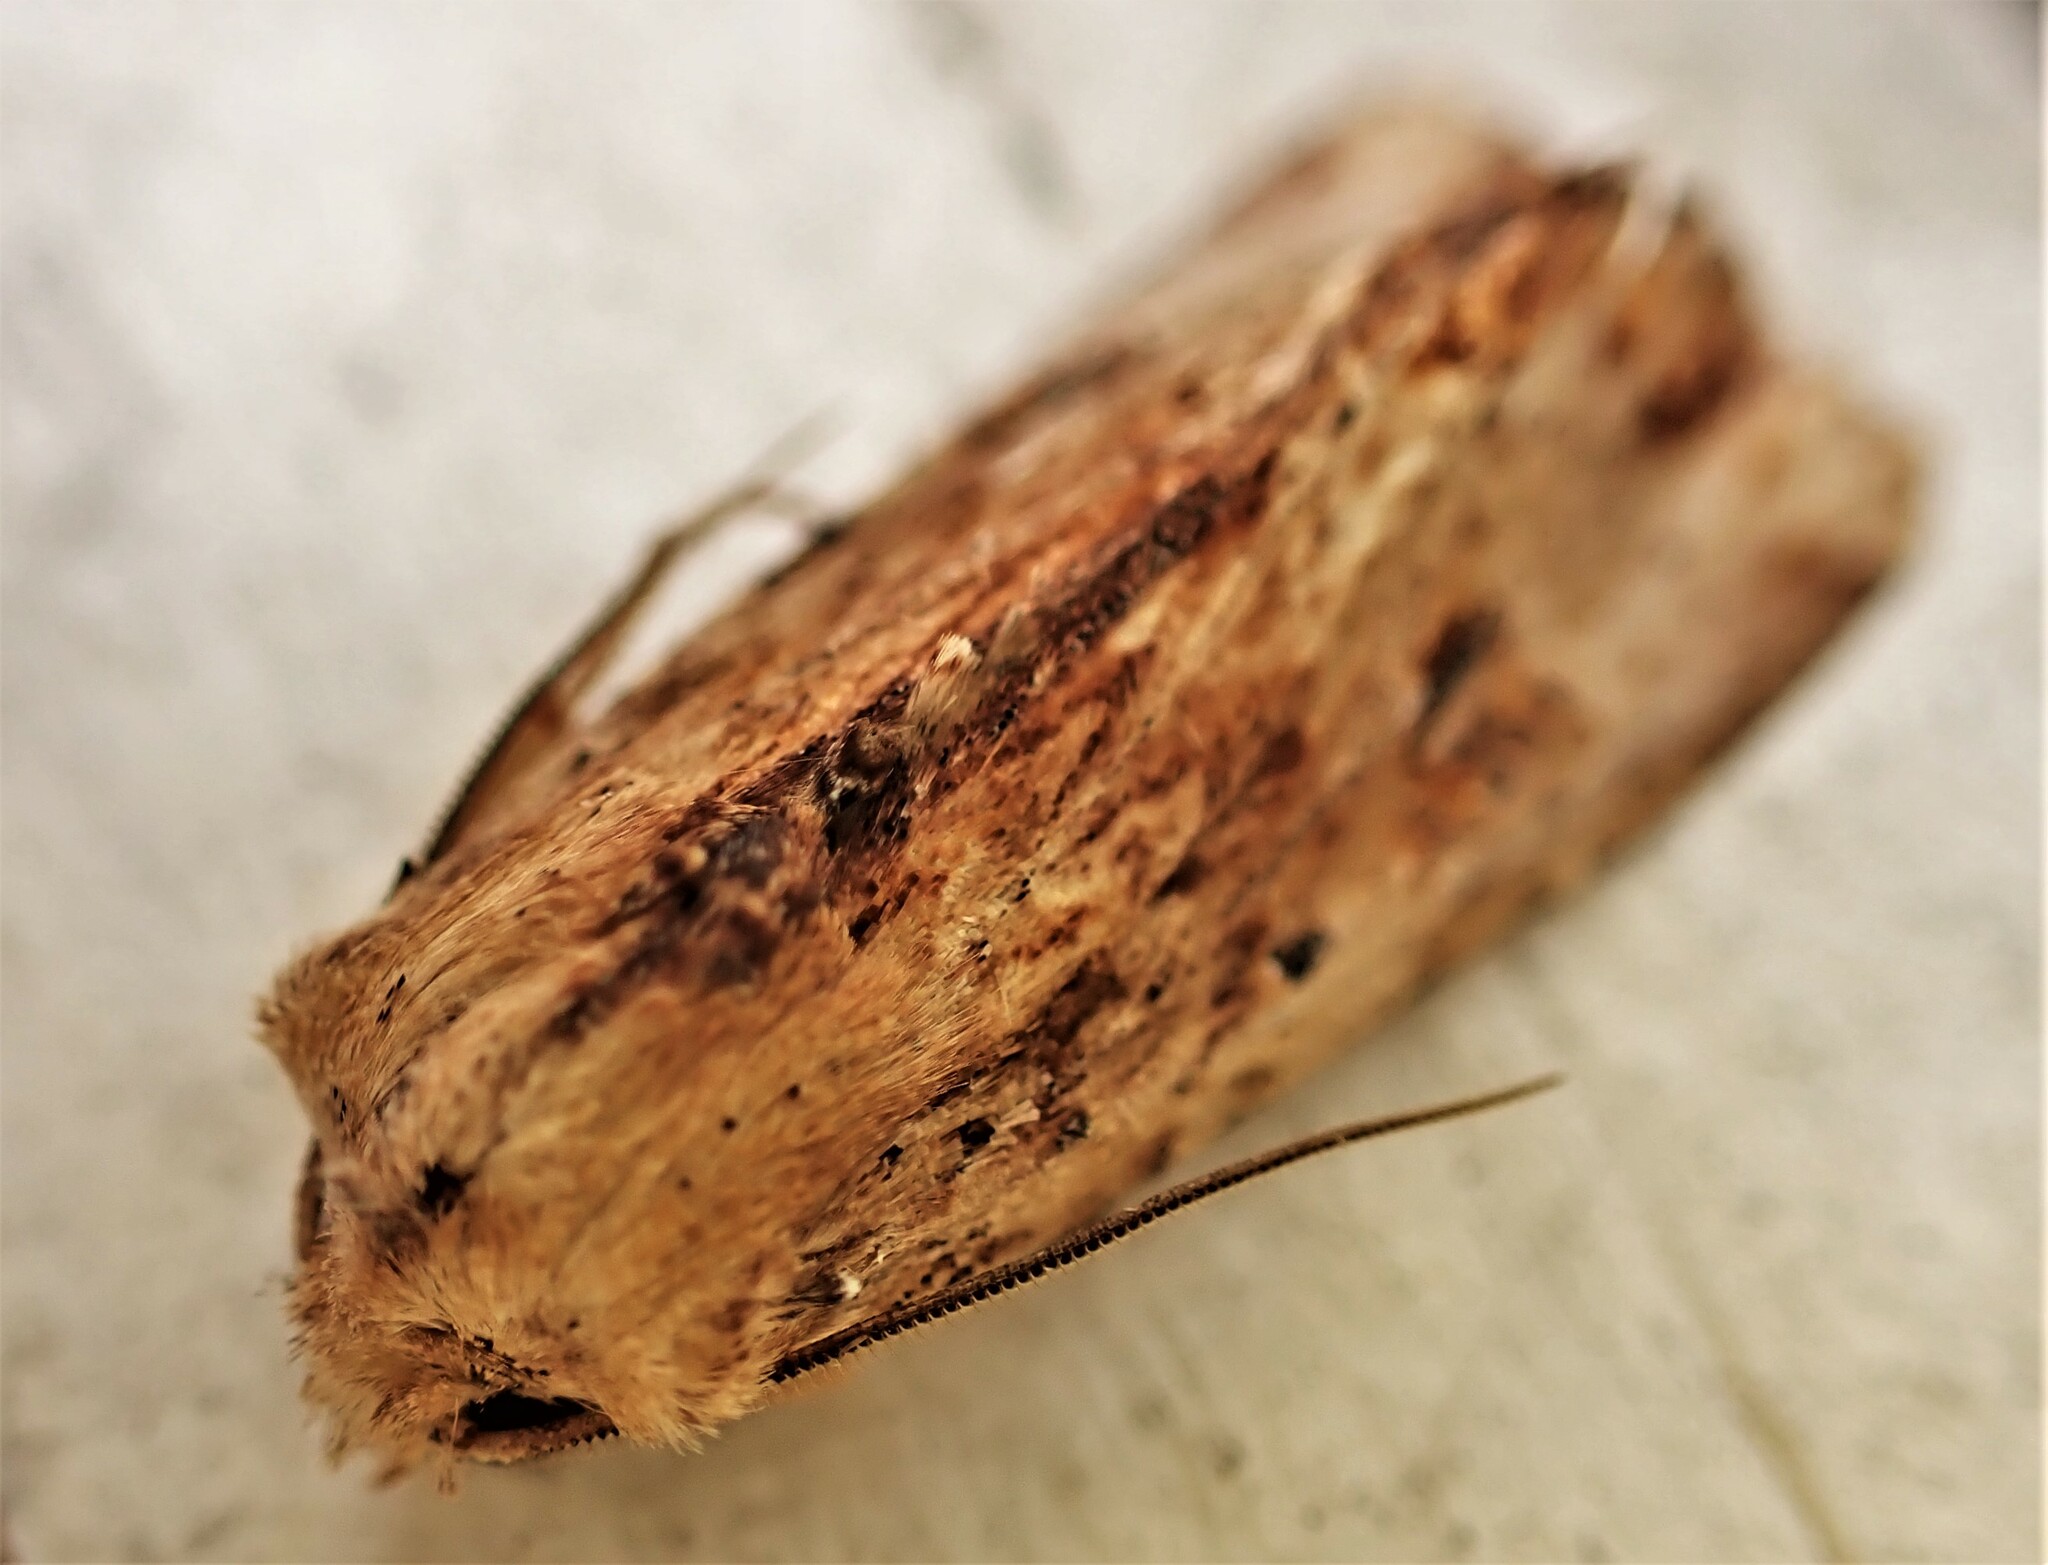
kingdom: Animalia
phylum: Arthropoda
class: Insecta
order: Lepidoptera
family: Noctuidae
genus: Ichneutica
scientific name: Ichneutica
